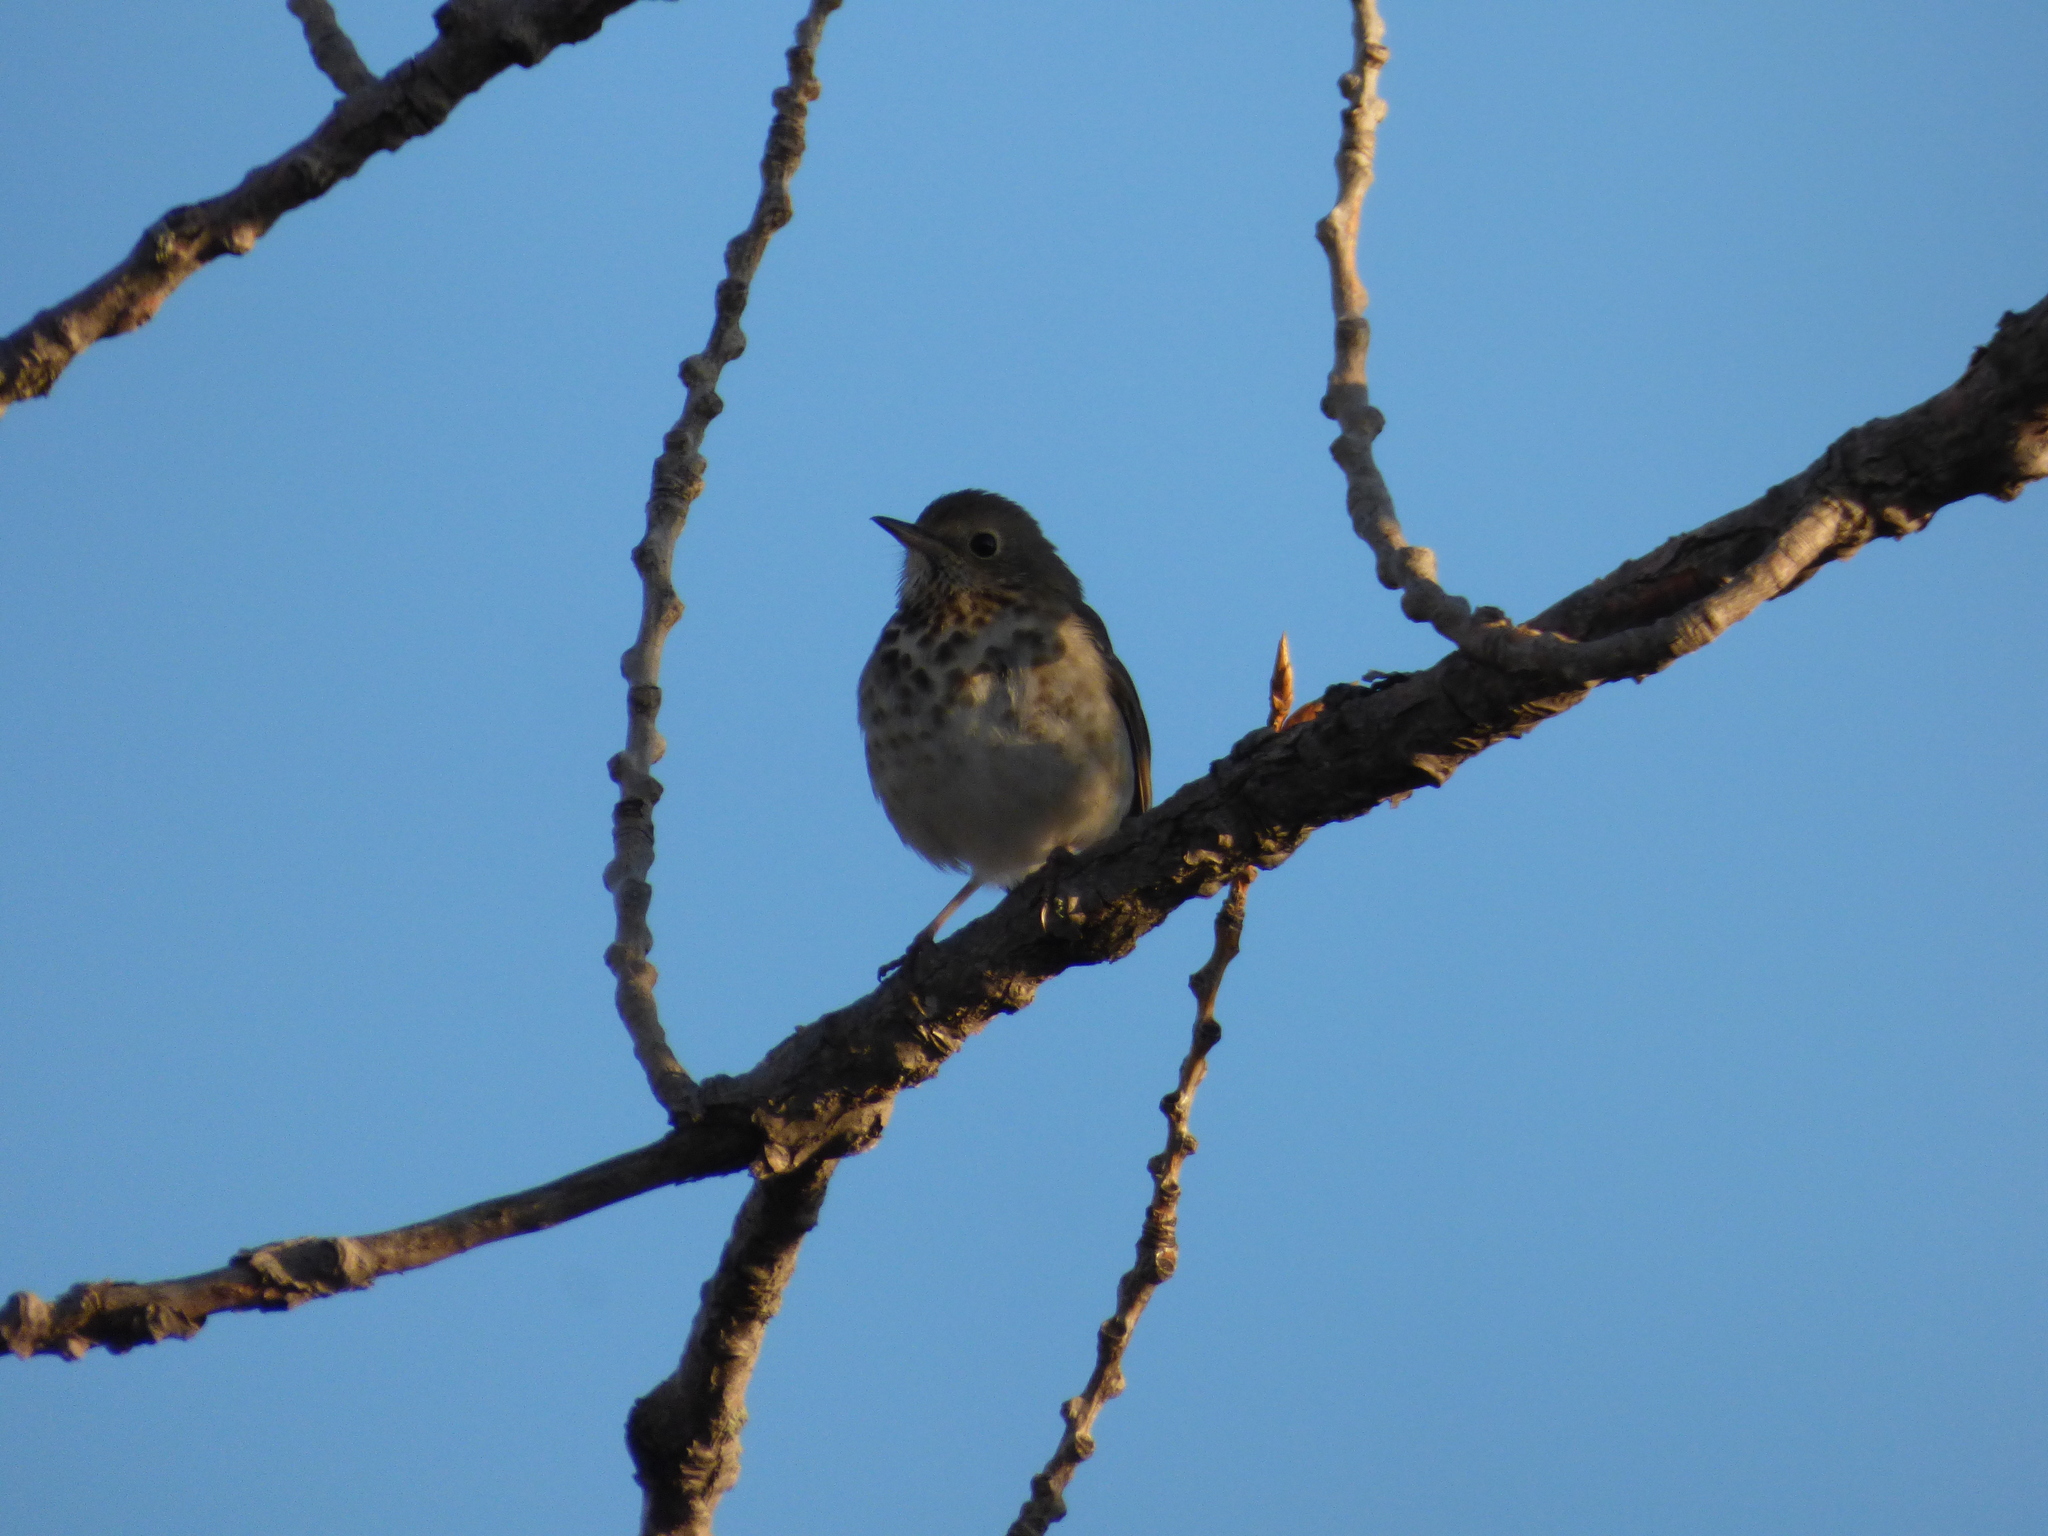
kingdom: Animalia
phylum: Chordata
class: Aves
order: Passeriformes
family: Turdidae
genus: Catharus
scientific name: Catharus guttatus
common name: Hermit thrush
